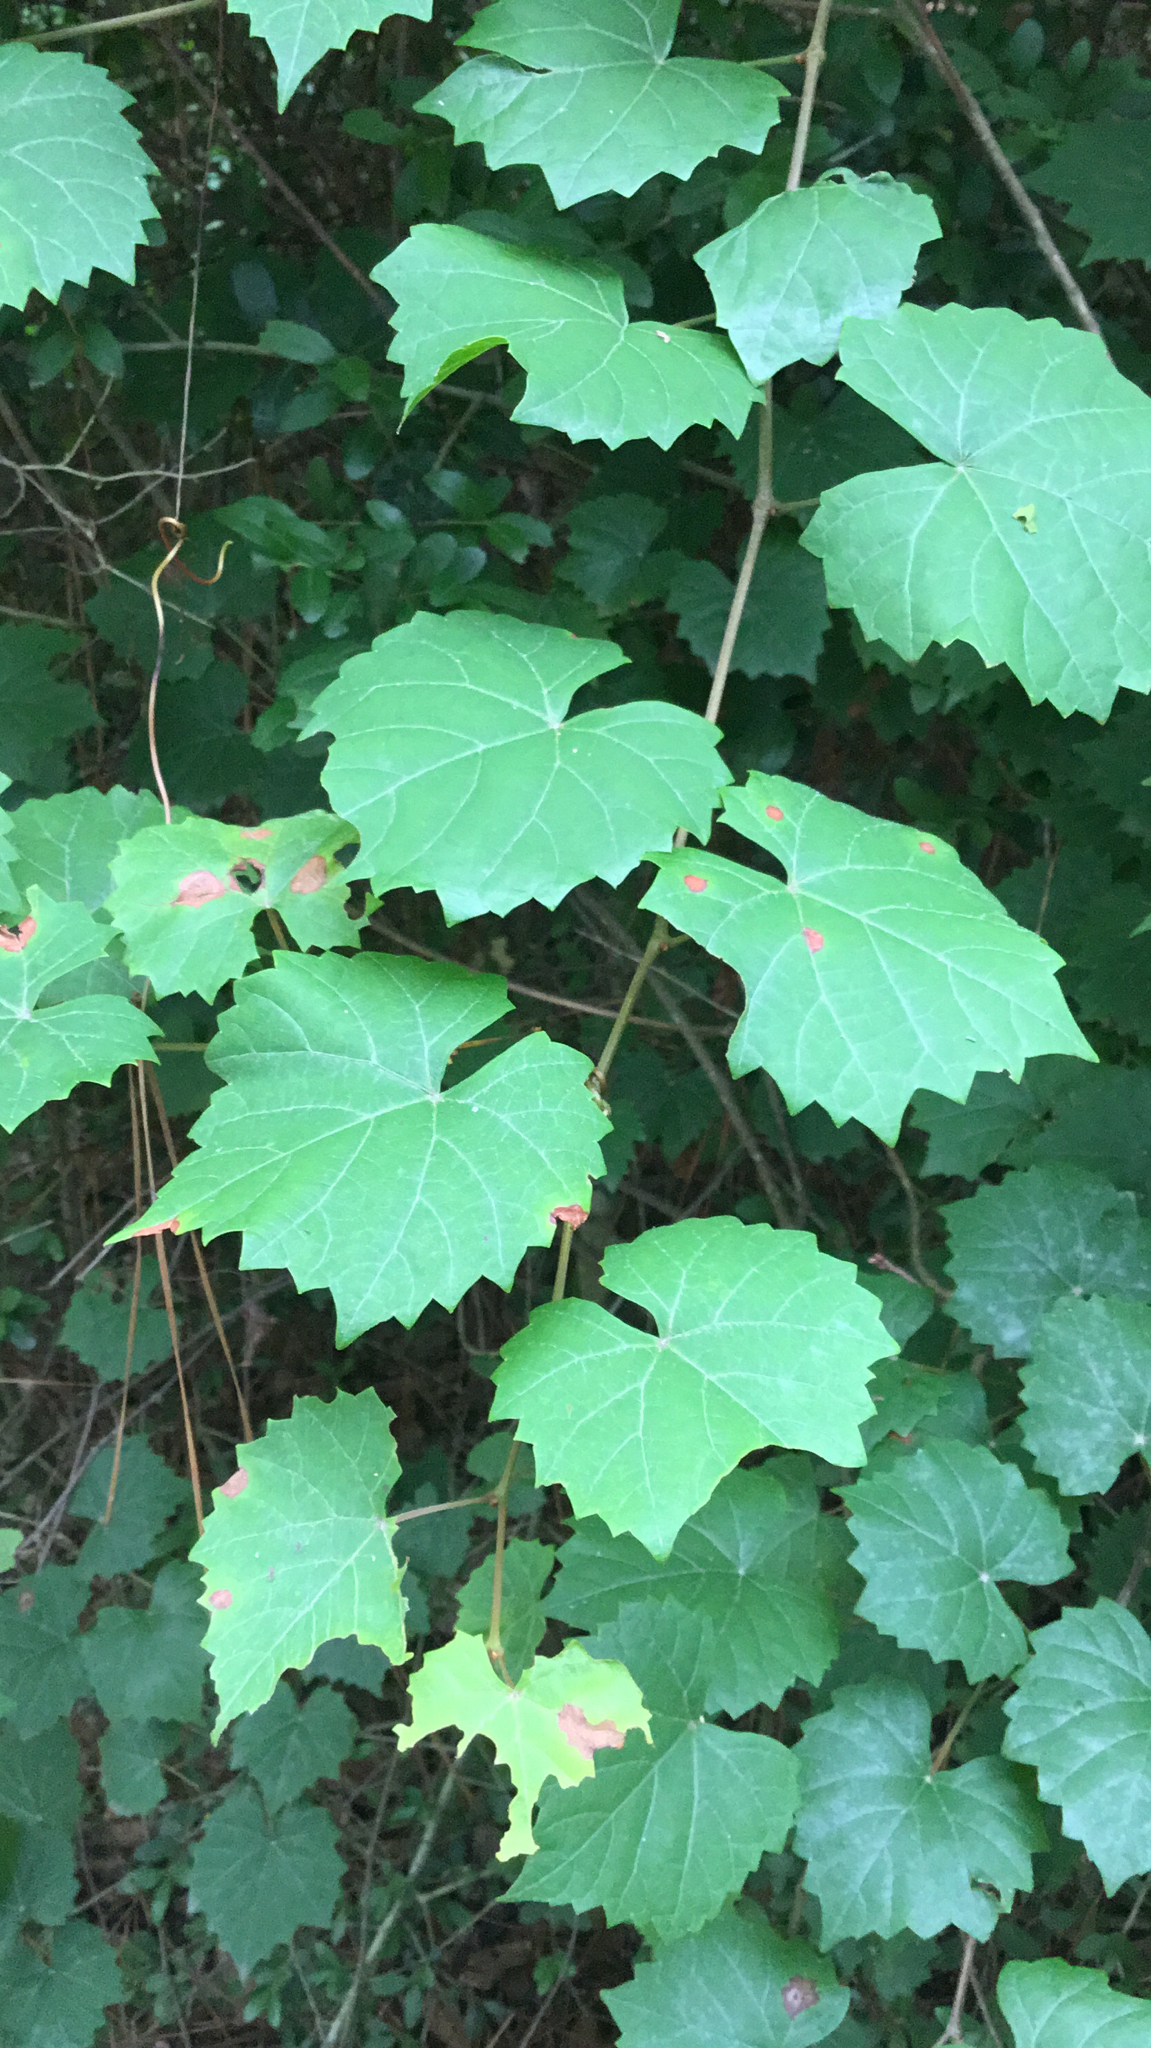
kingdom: Plantae
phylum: Tracheophyta
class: Magnoliopsida
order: Vitales
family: Vitaceae
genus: Vitis
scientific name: Vitis rotundifolia
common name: Muscadine grape
